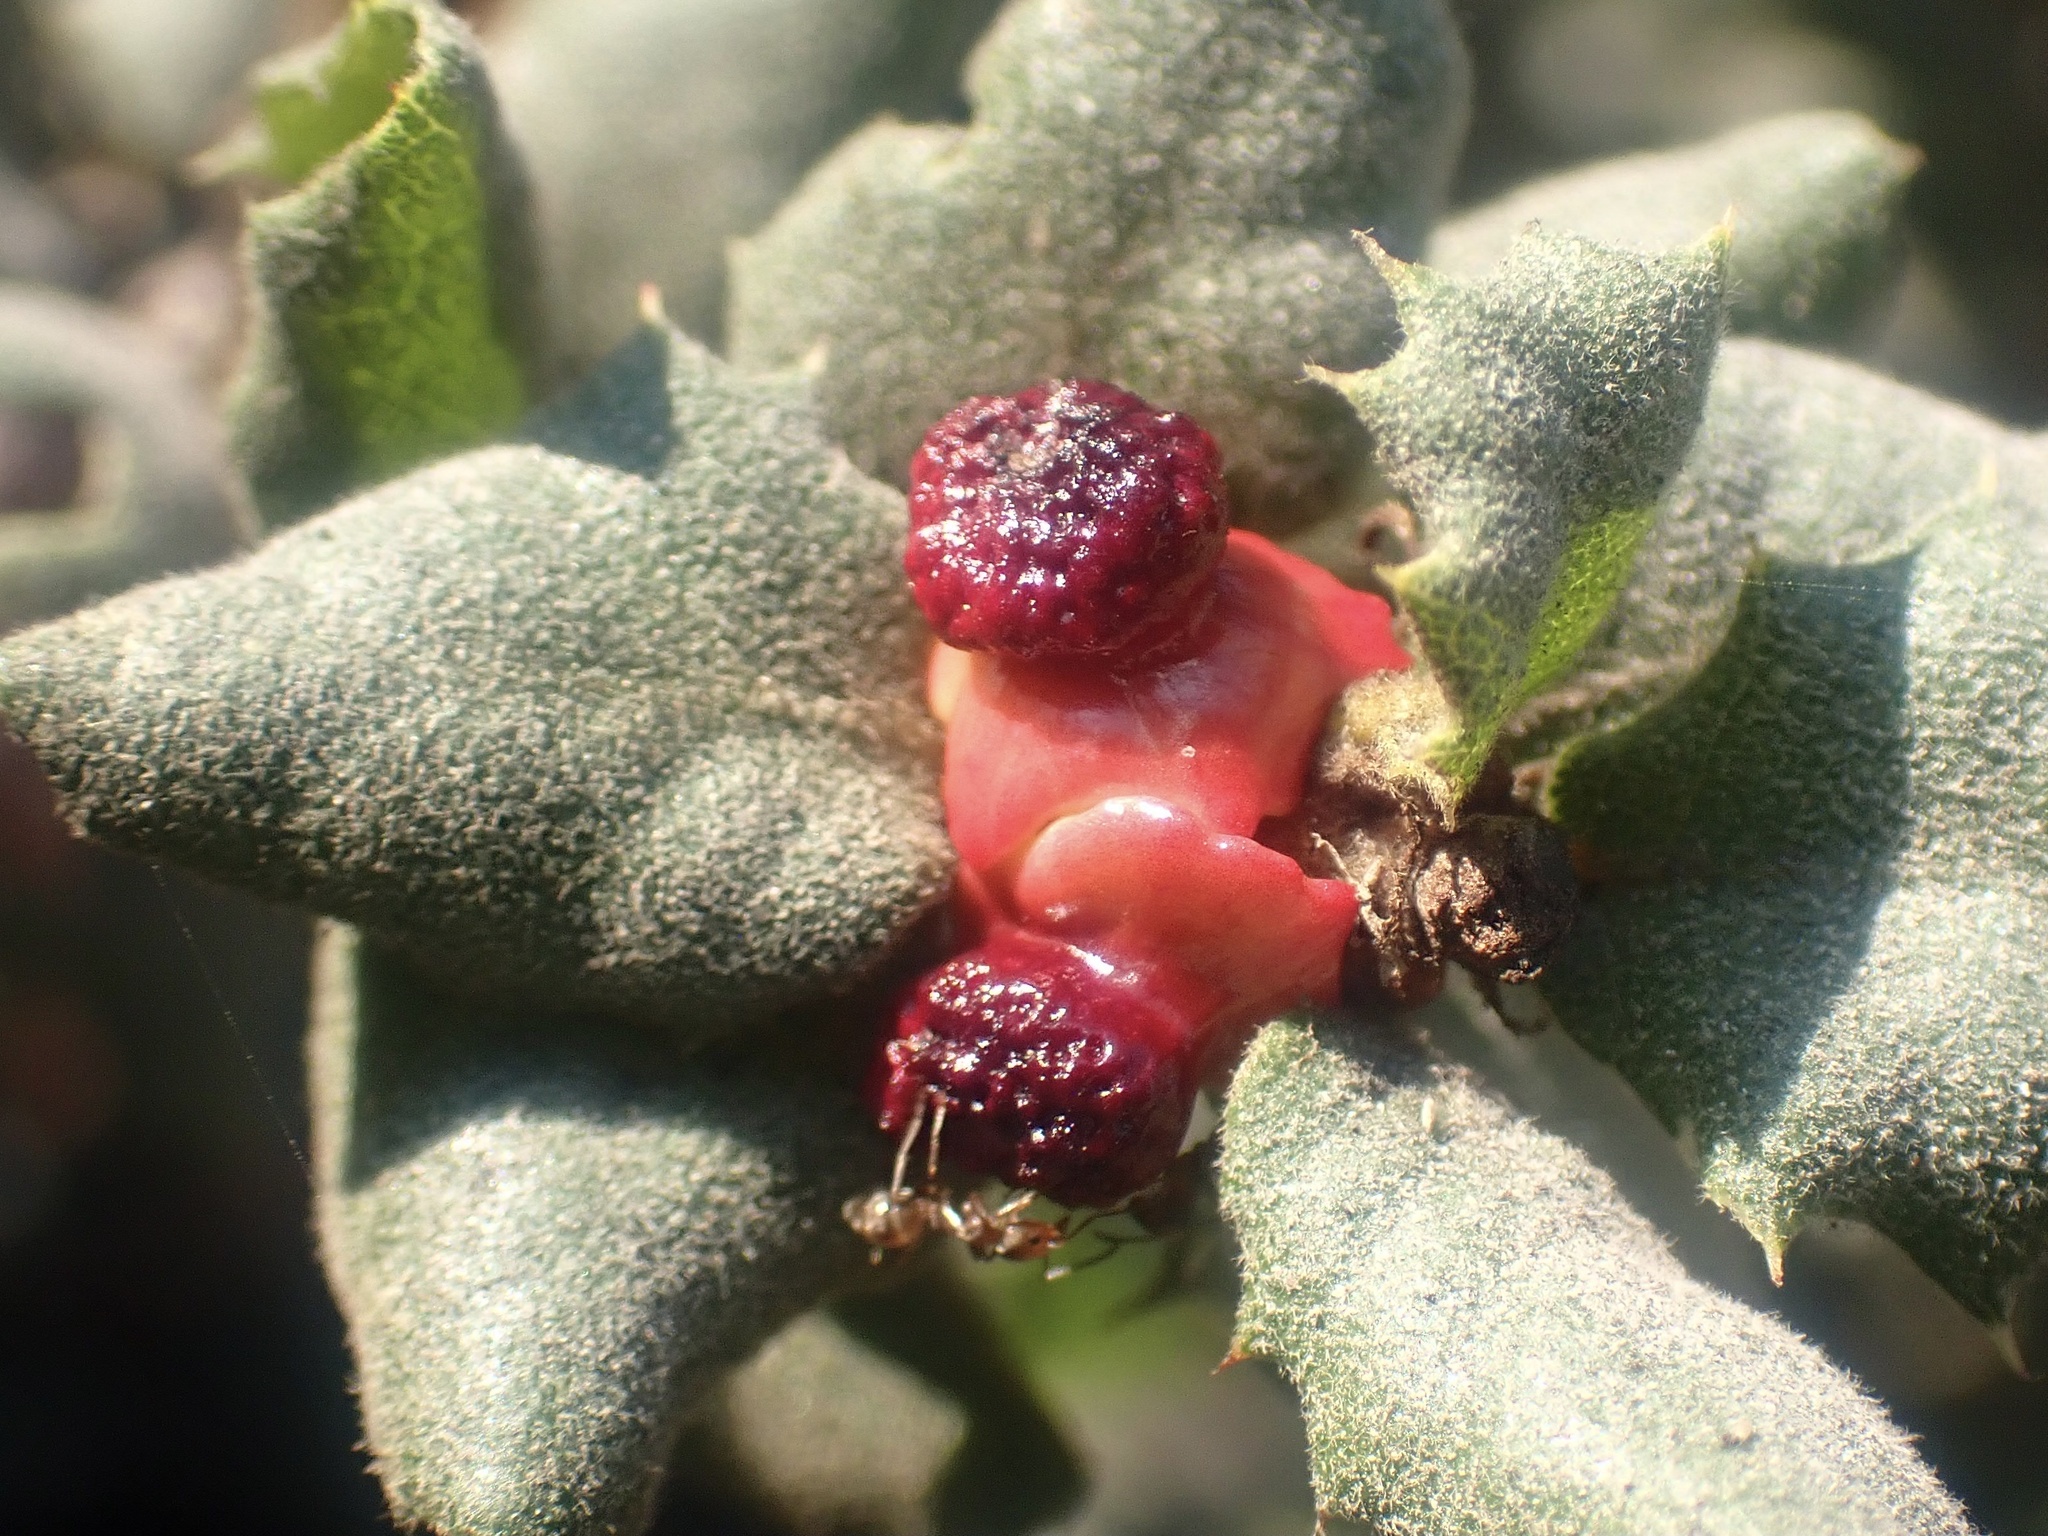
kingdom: Animalia
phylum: Arthropoda
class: Insecta
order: Hymenoptera
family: Cynipidae
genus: Disholcaspis
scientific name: Disholcaspis prehensa
